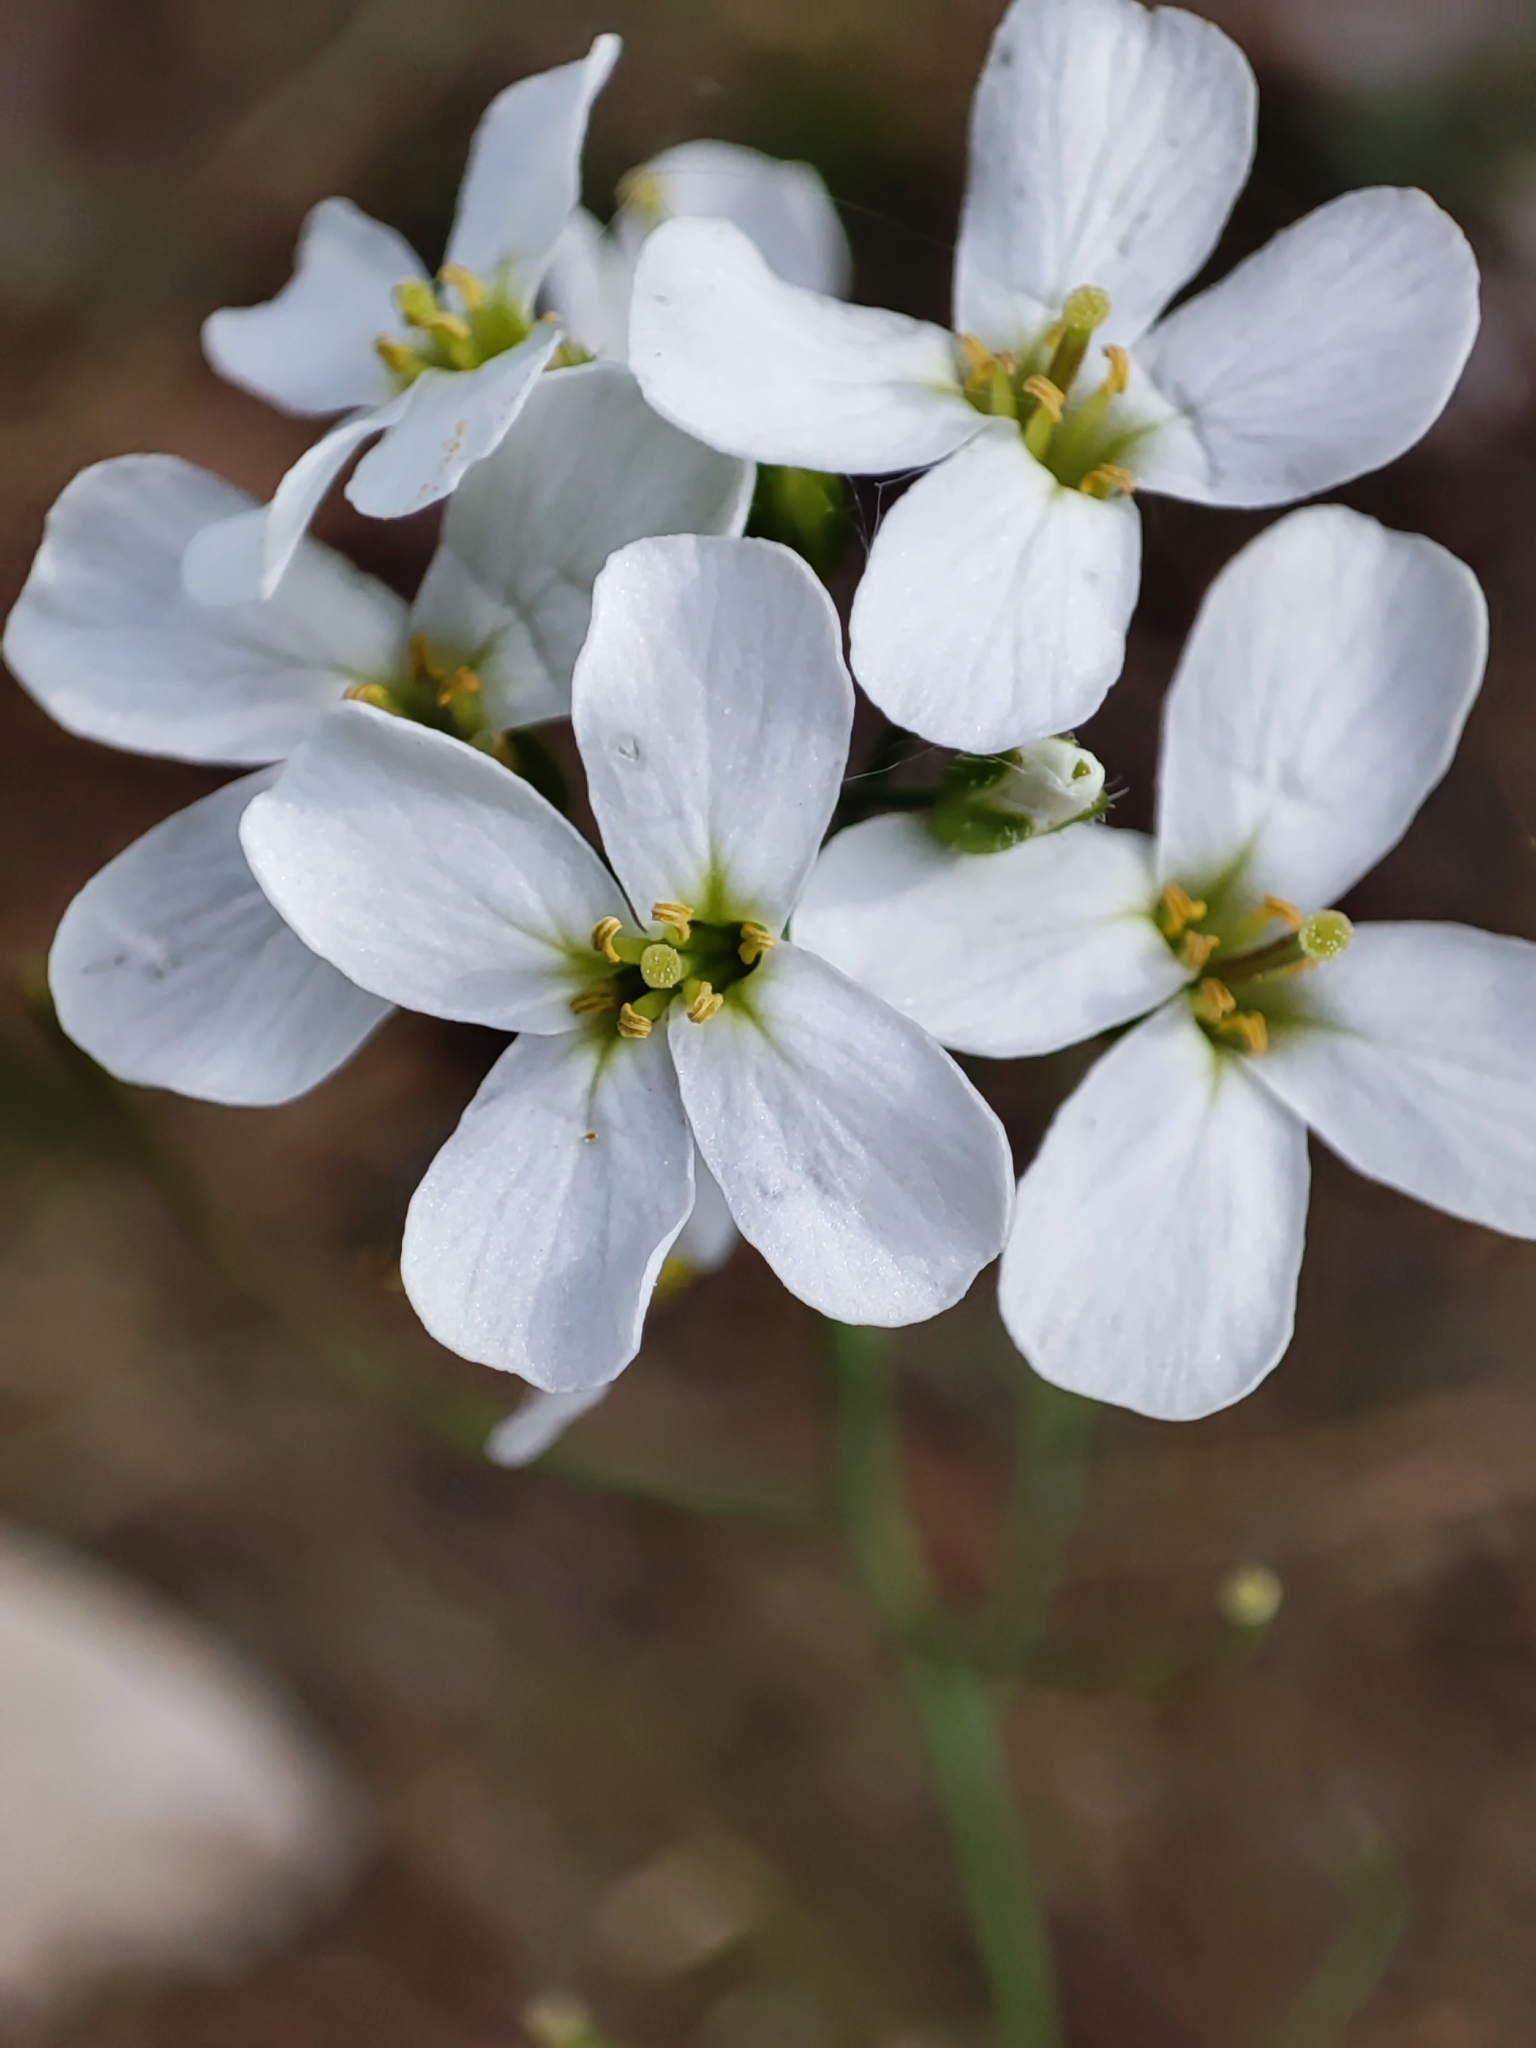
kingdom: Plantae
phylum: Tracheophyta
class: Magnoliopsida
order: Brassicales
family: Brassicaceae
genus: Arabidopsis
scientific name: Arabidopsis arenosa
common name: Sand rock-cress
